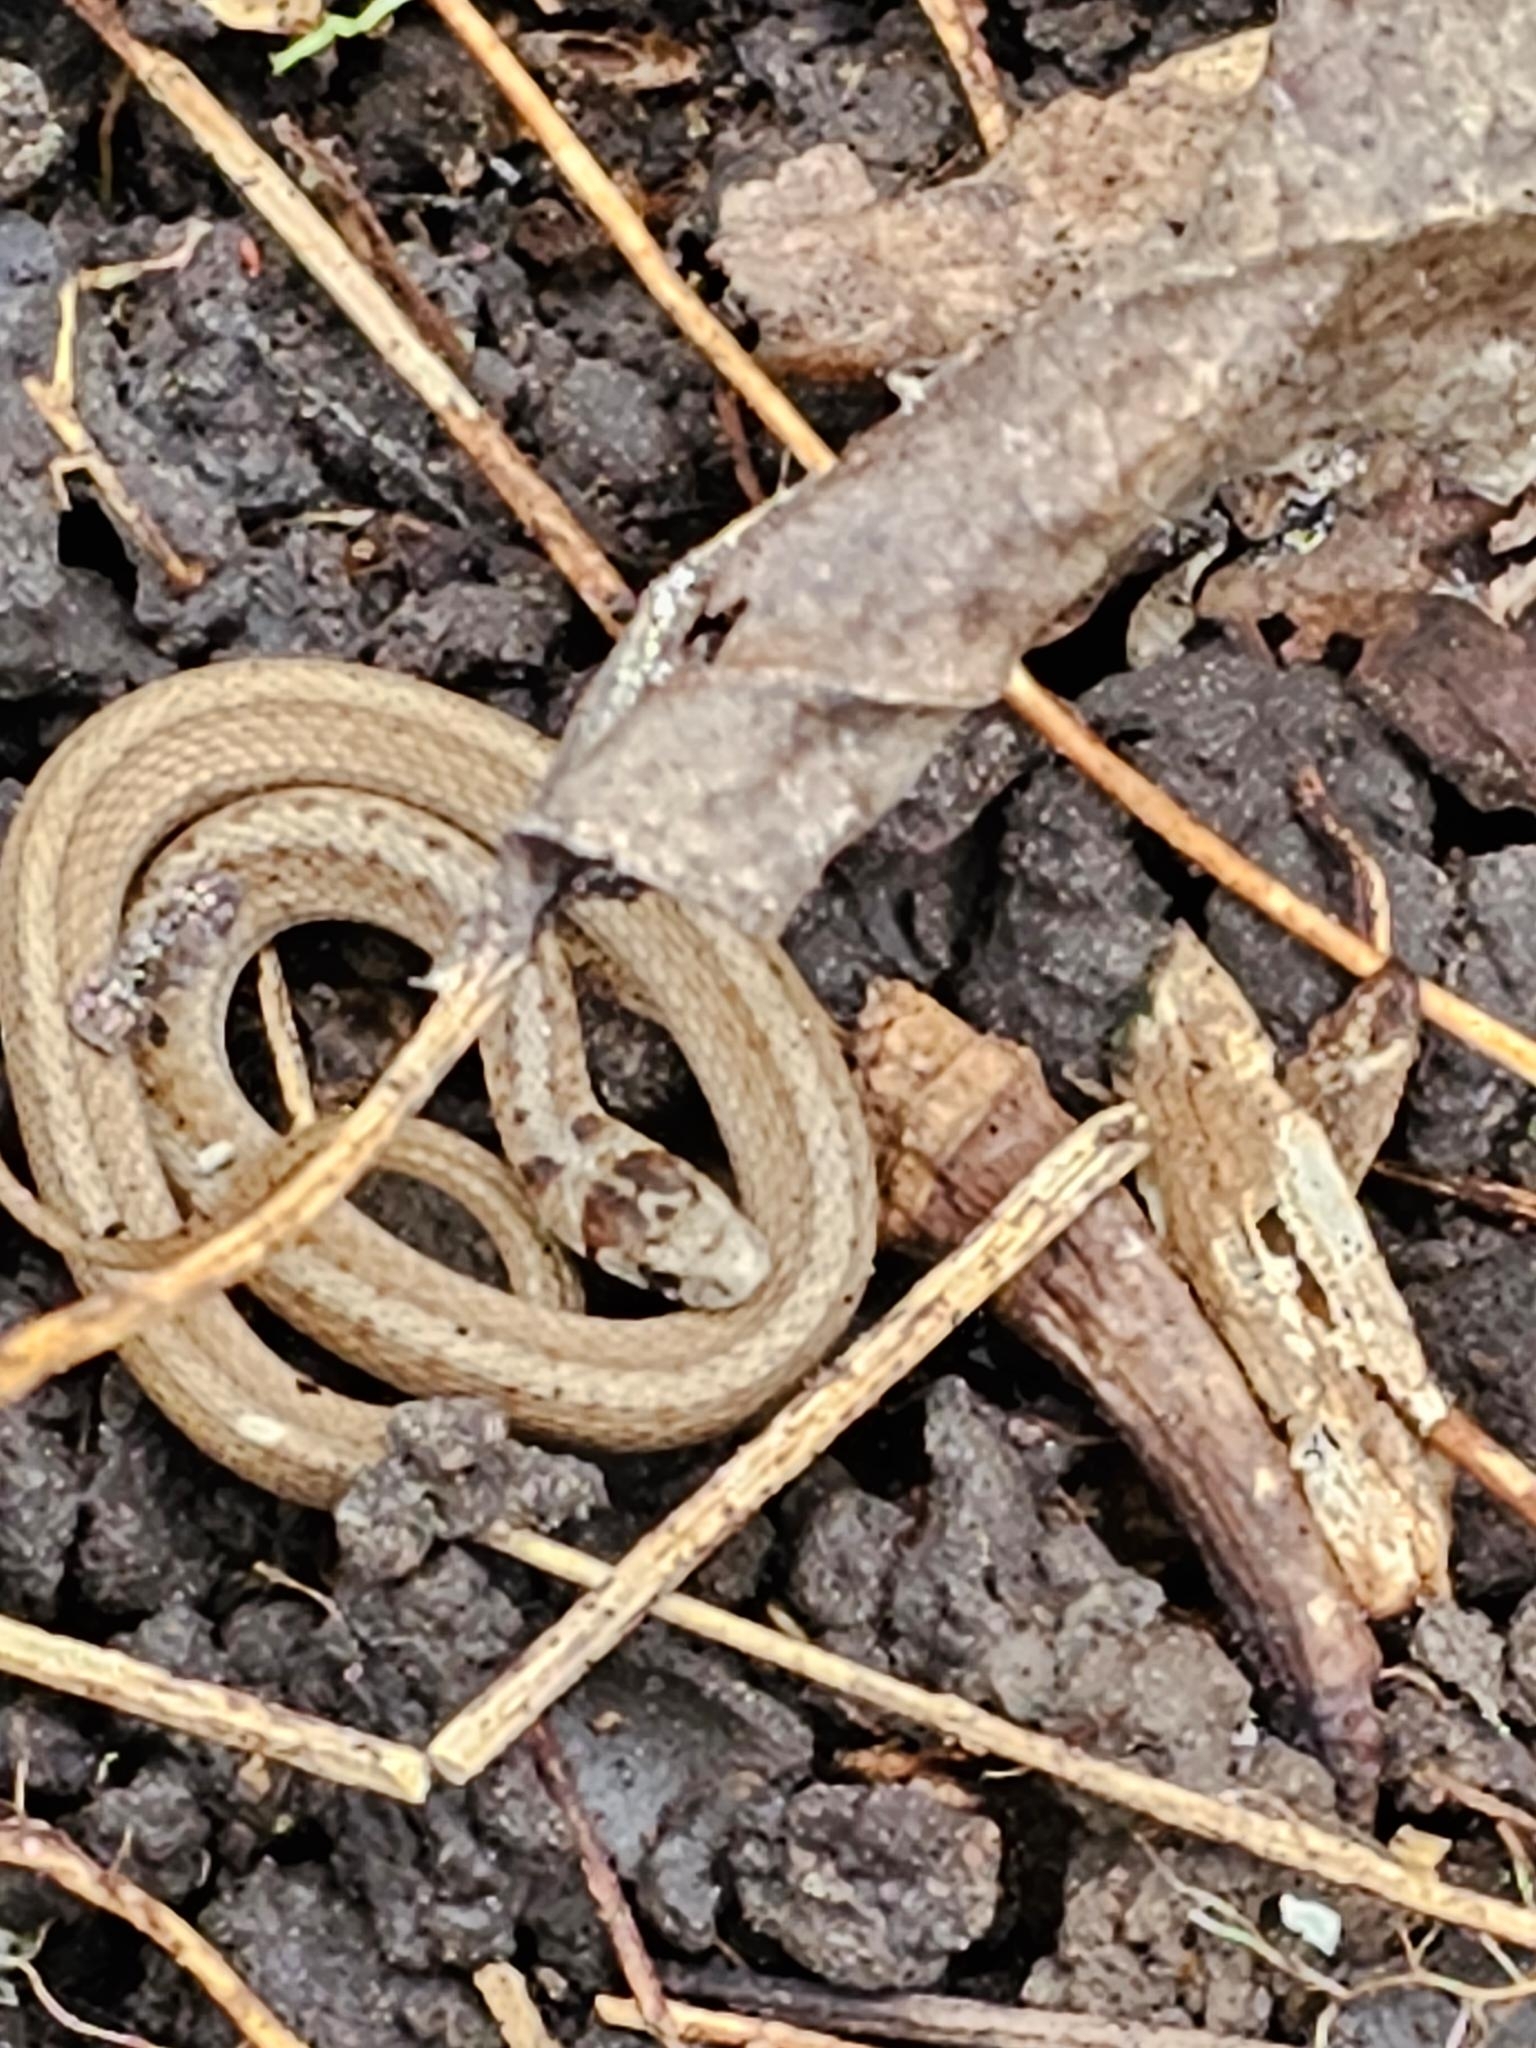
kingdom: Animalia
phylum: Chordata
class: Squamata
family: Colubridae
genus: Storeria
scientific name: Storeria dekayi
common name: (dekay’s) brown snake
